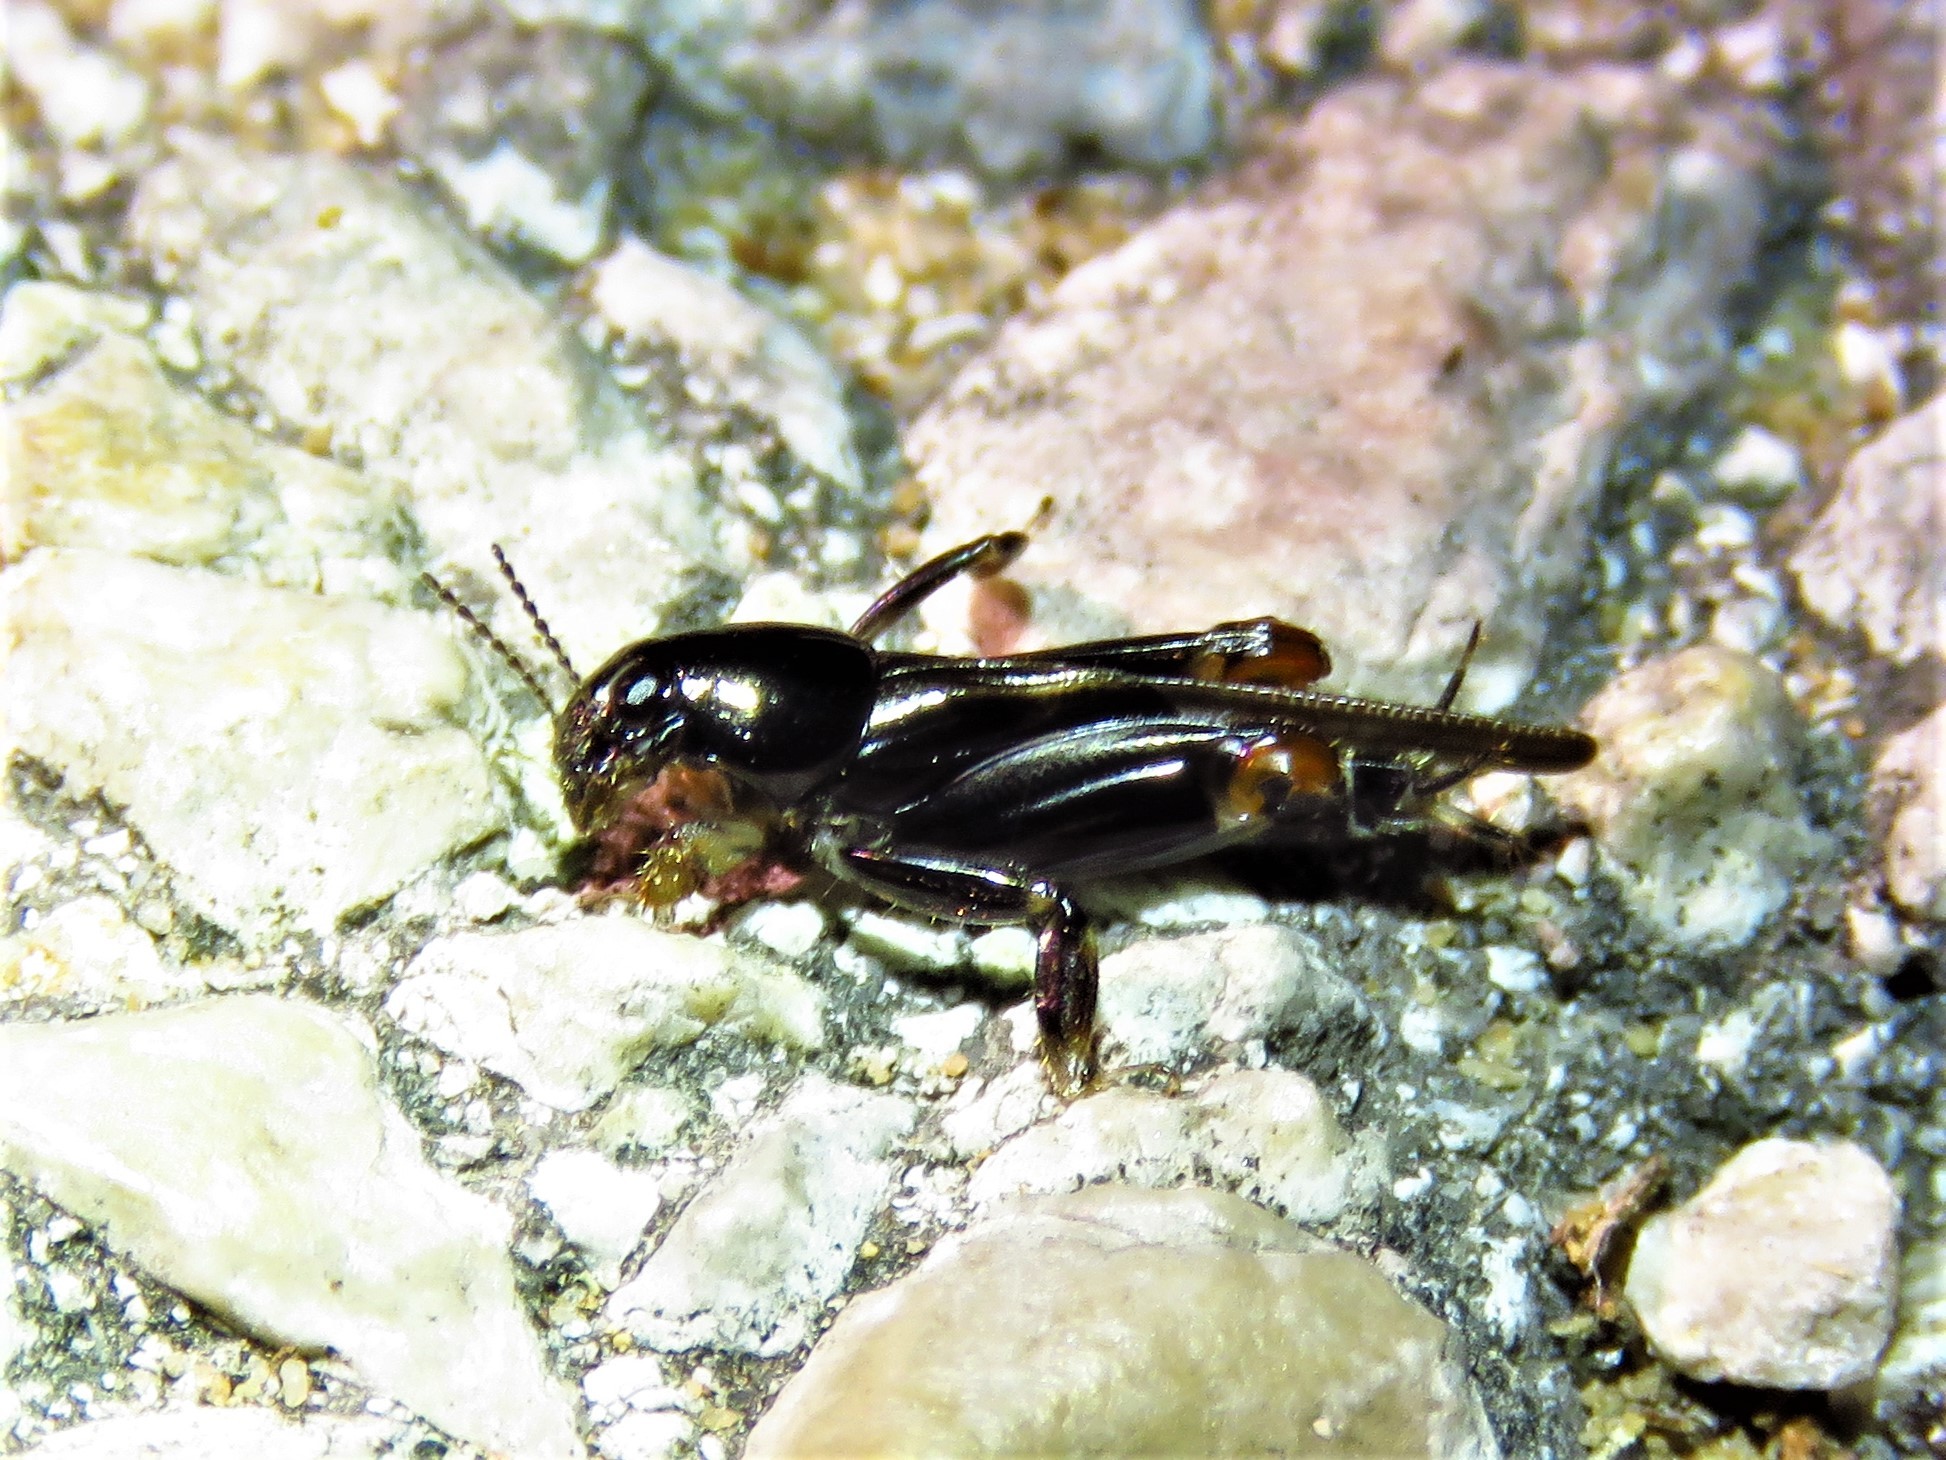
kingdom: Animalia
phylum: Arthropoda
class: Insecta
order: Orthoptera
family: Tridactylidae
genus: Neotridactylus
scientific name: Neotridactylus apicialis
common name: Larger pygmy locust
